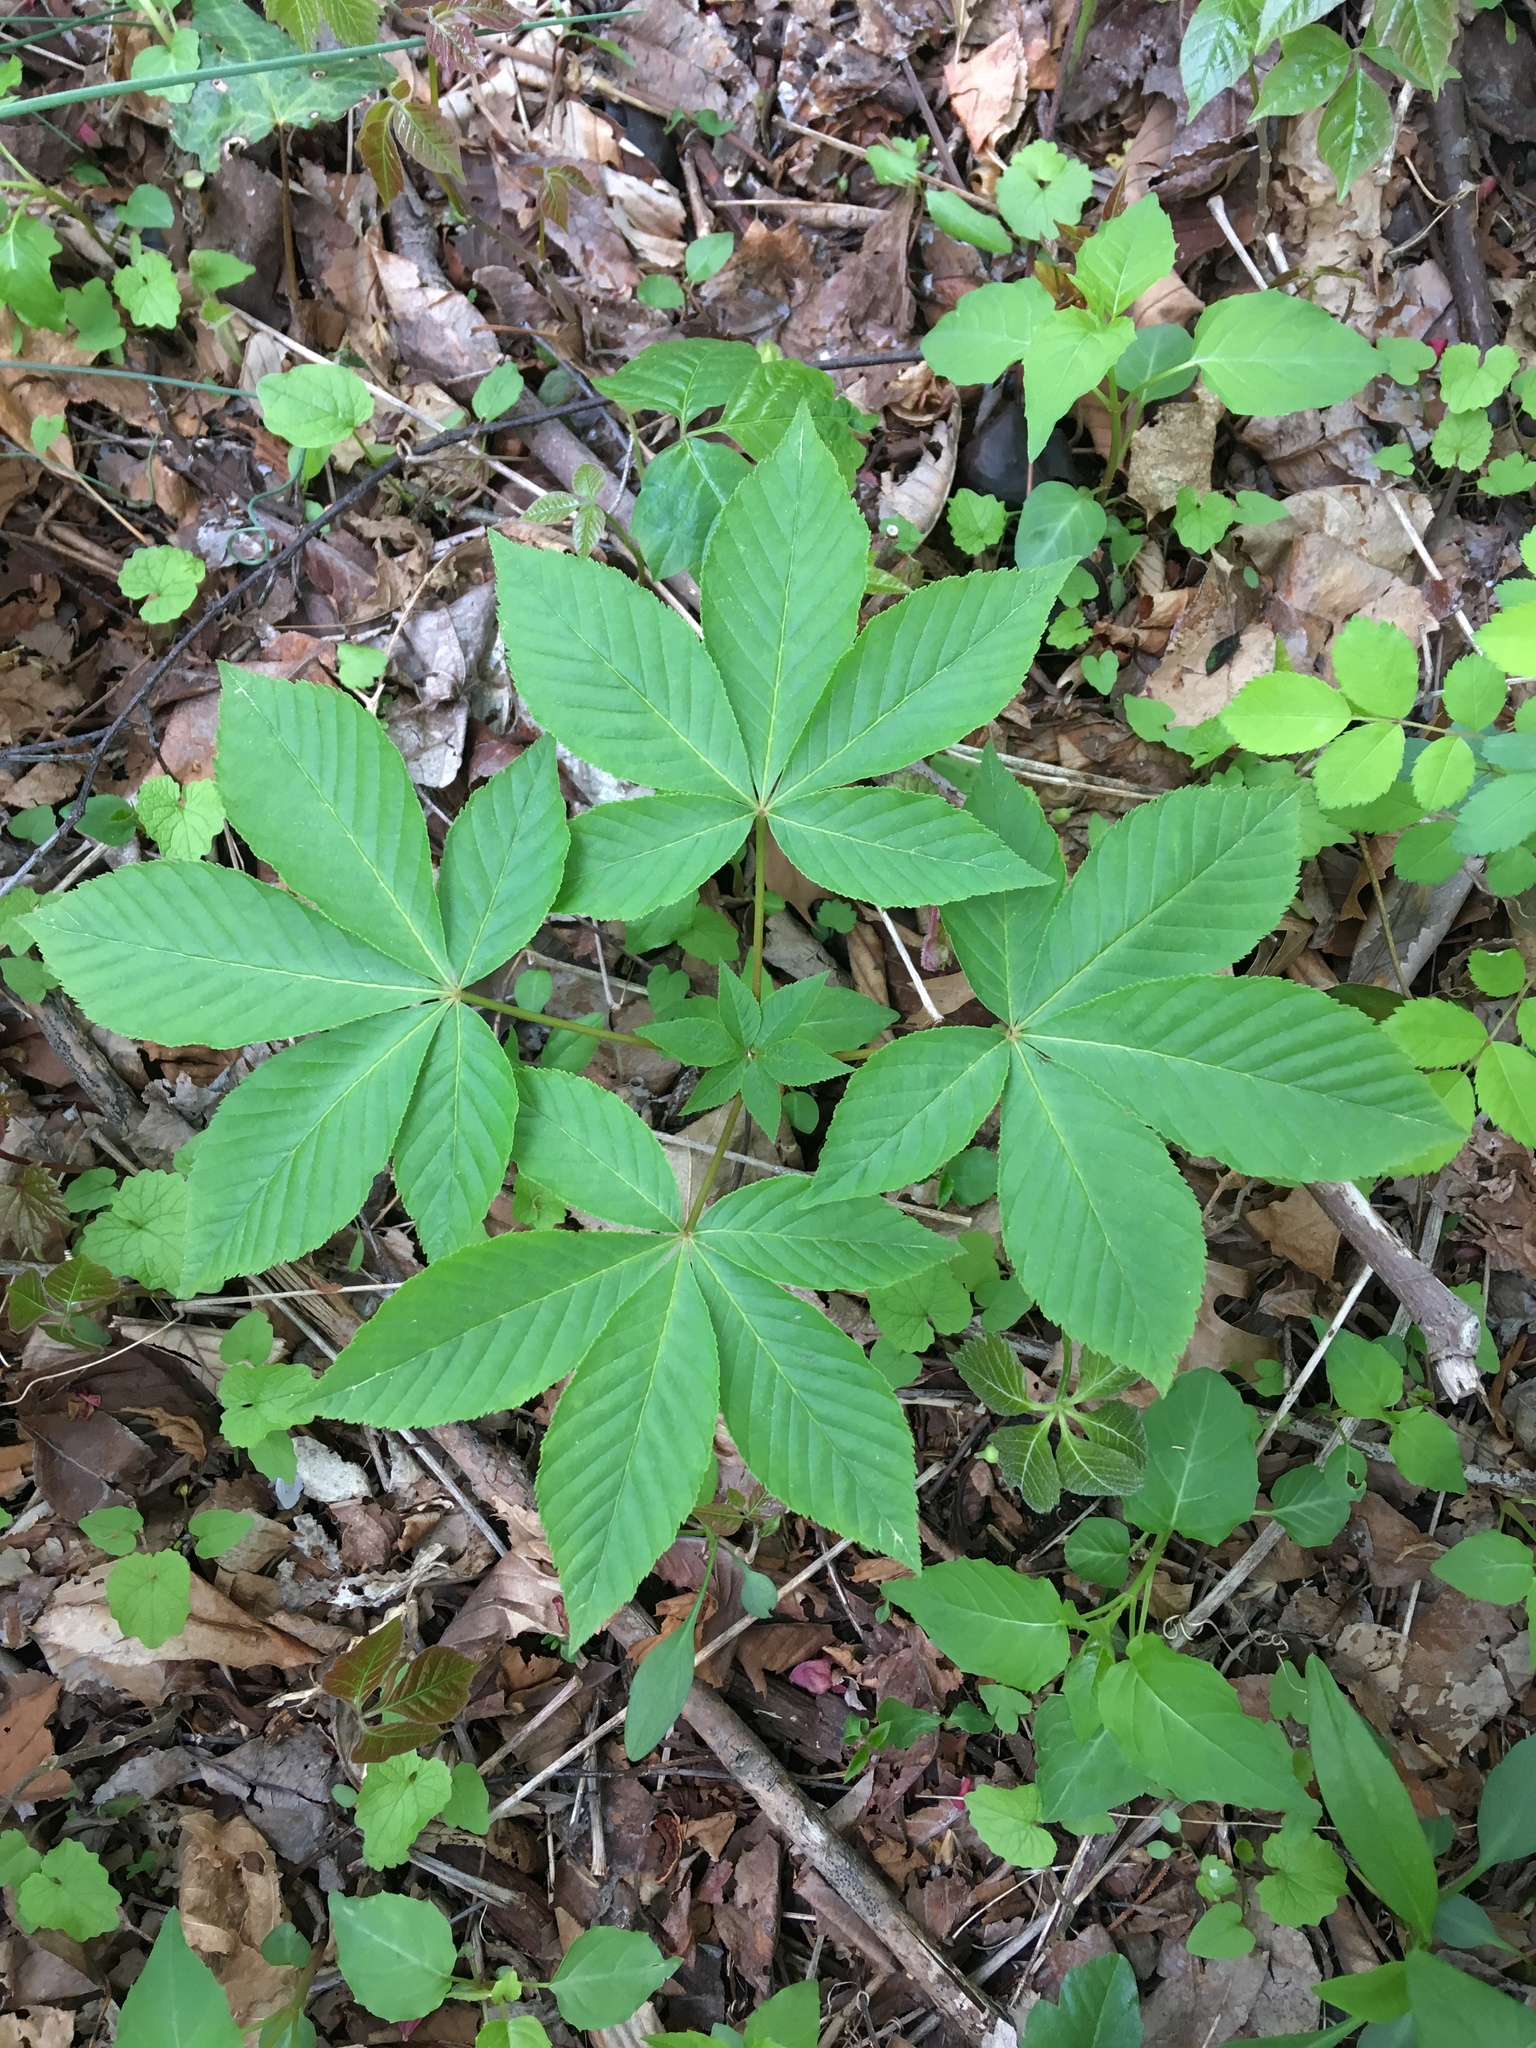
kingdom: Plantae
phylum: Tracheophyta
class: Magnoliopsida
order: Sapindales
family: Sapindaceae
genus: Aesculus
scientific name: Aesculus glabra
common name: Ohio buckeye
